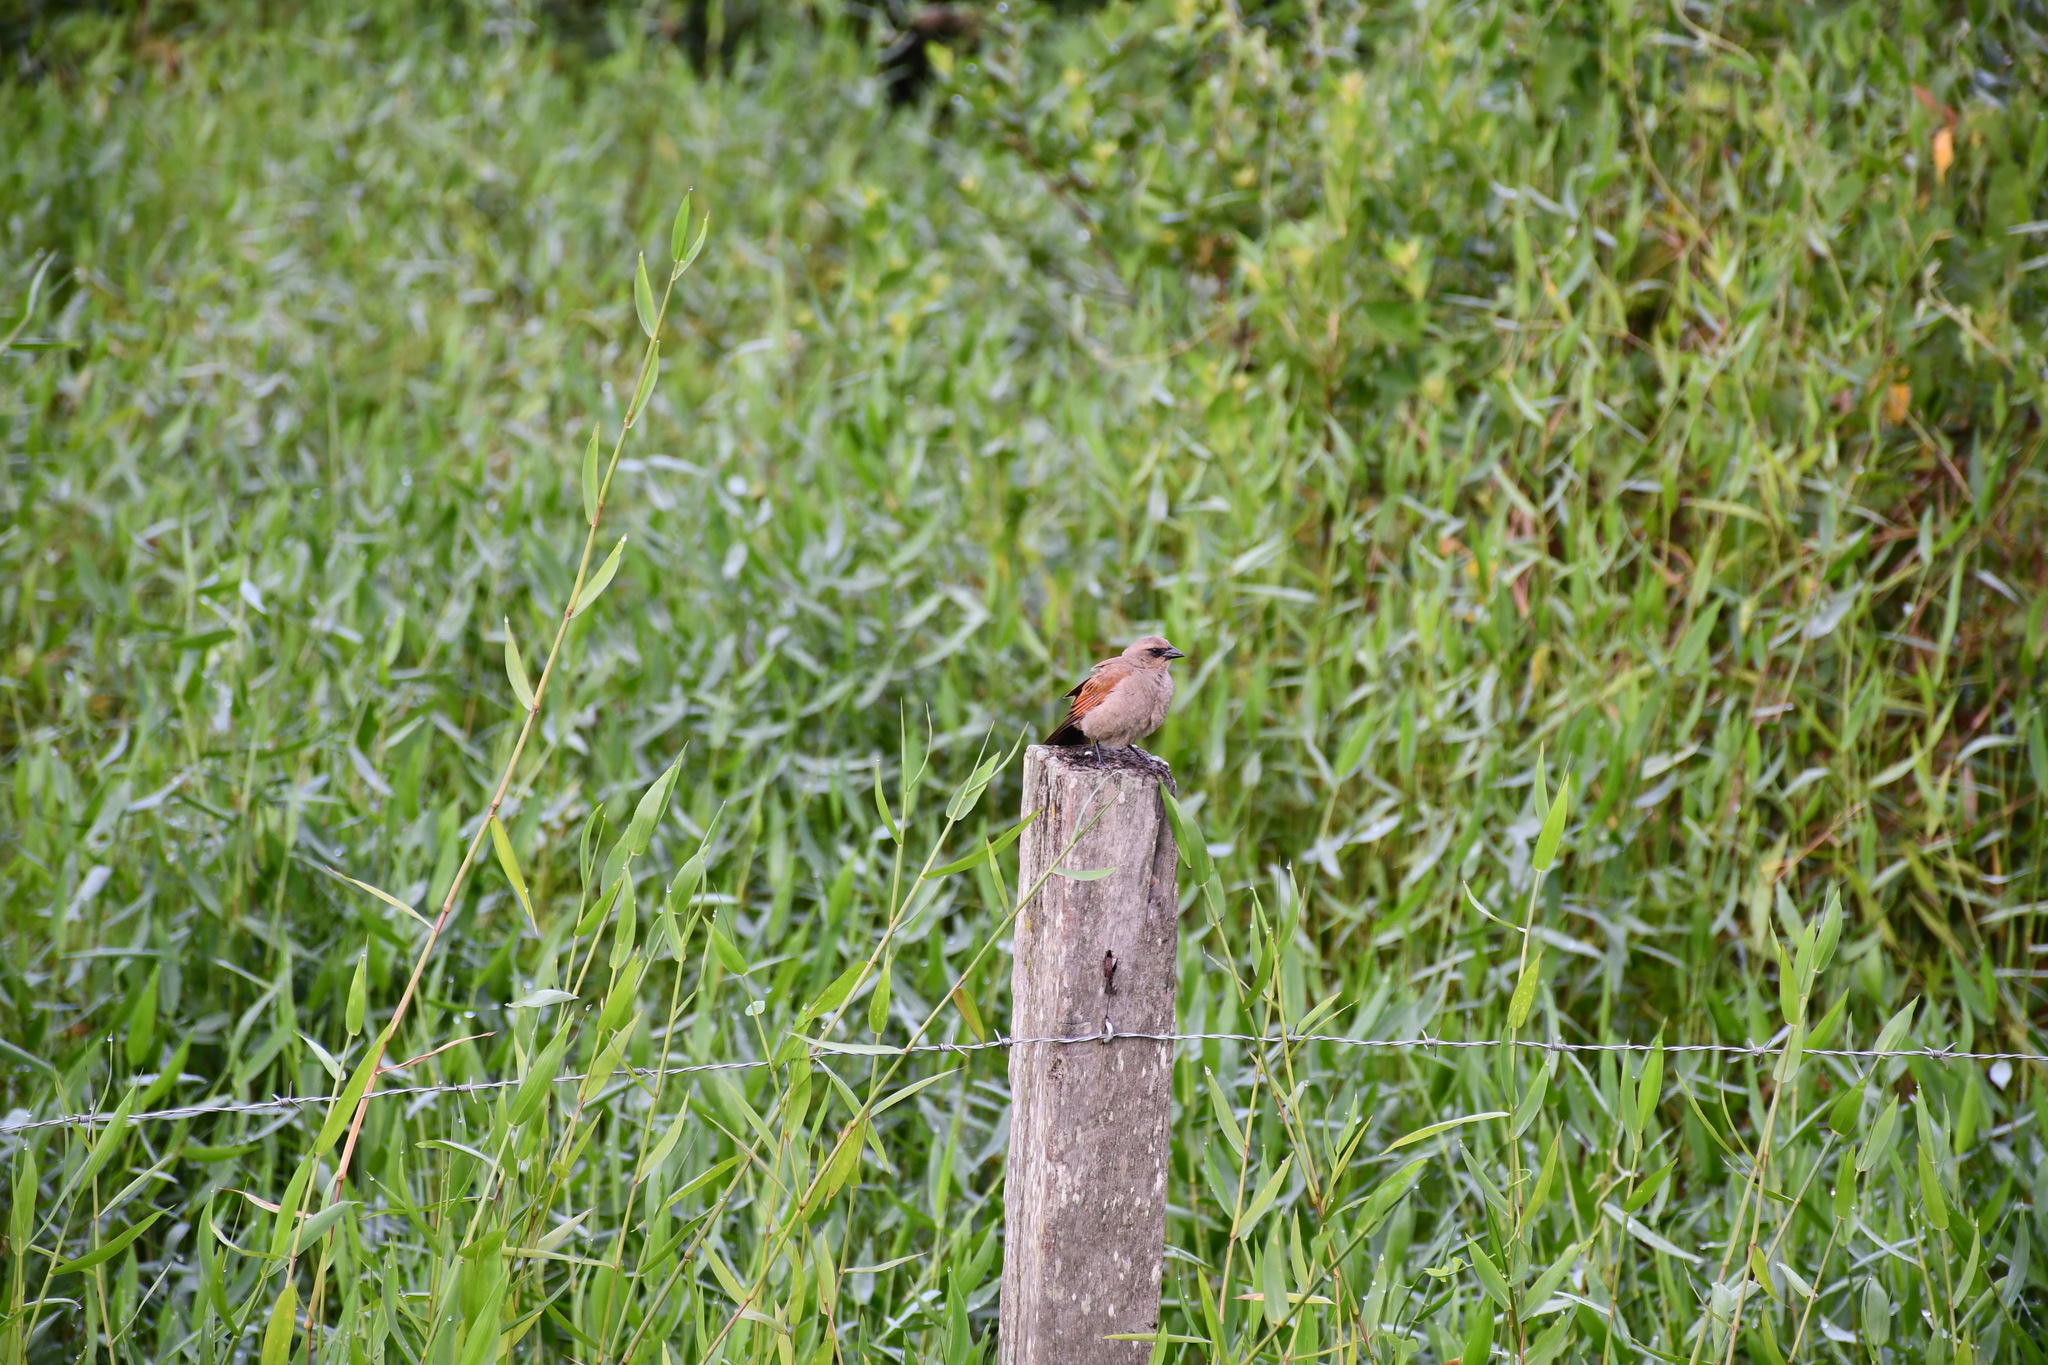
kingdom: Animalia
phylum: Chordata
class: Aves
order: Passeriformes
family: Icteridae
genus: Agelaioides
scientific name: Agelaioides badius
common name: Baywing
